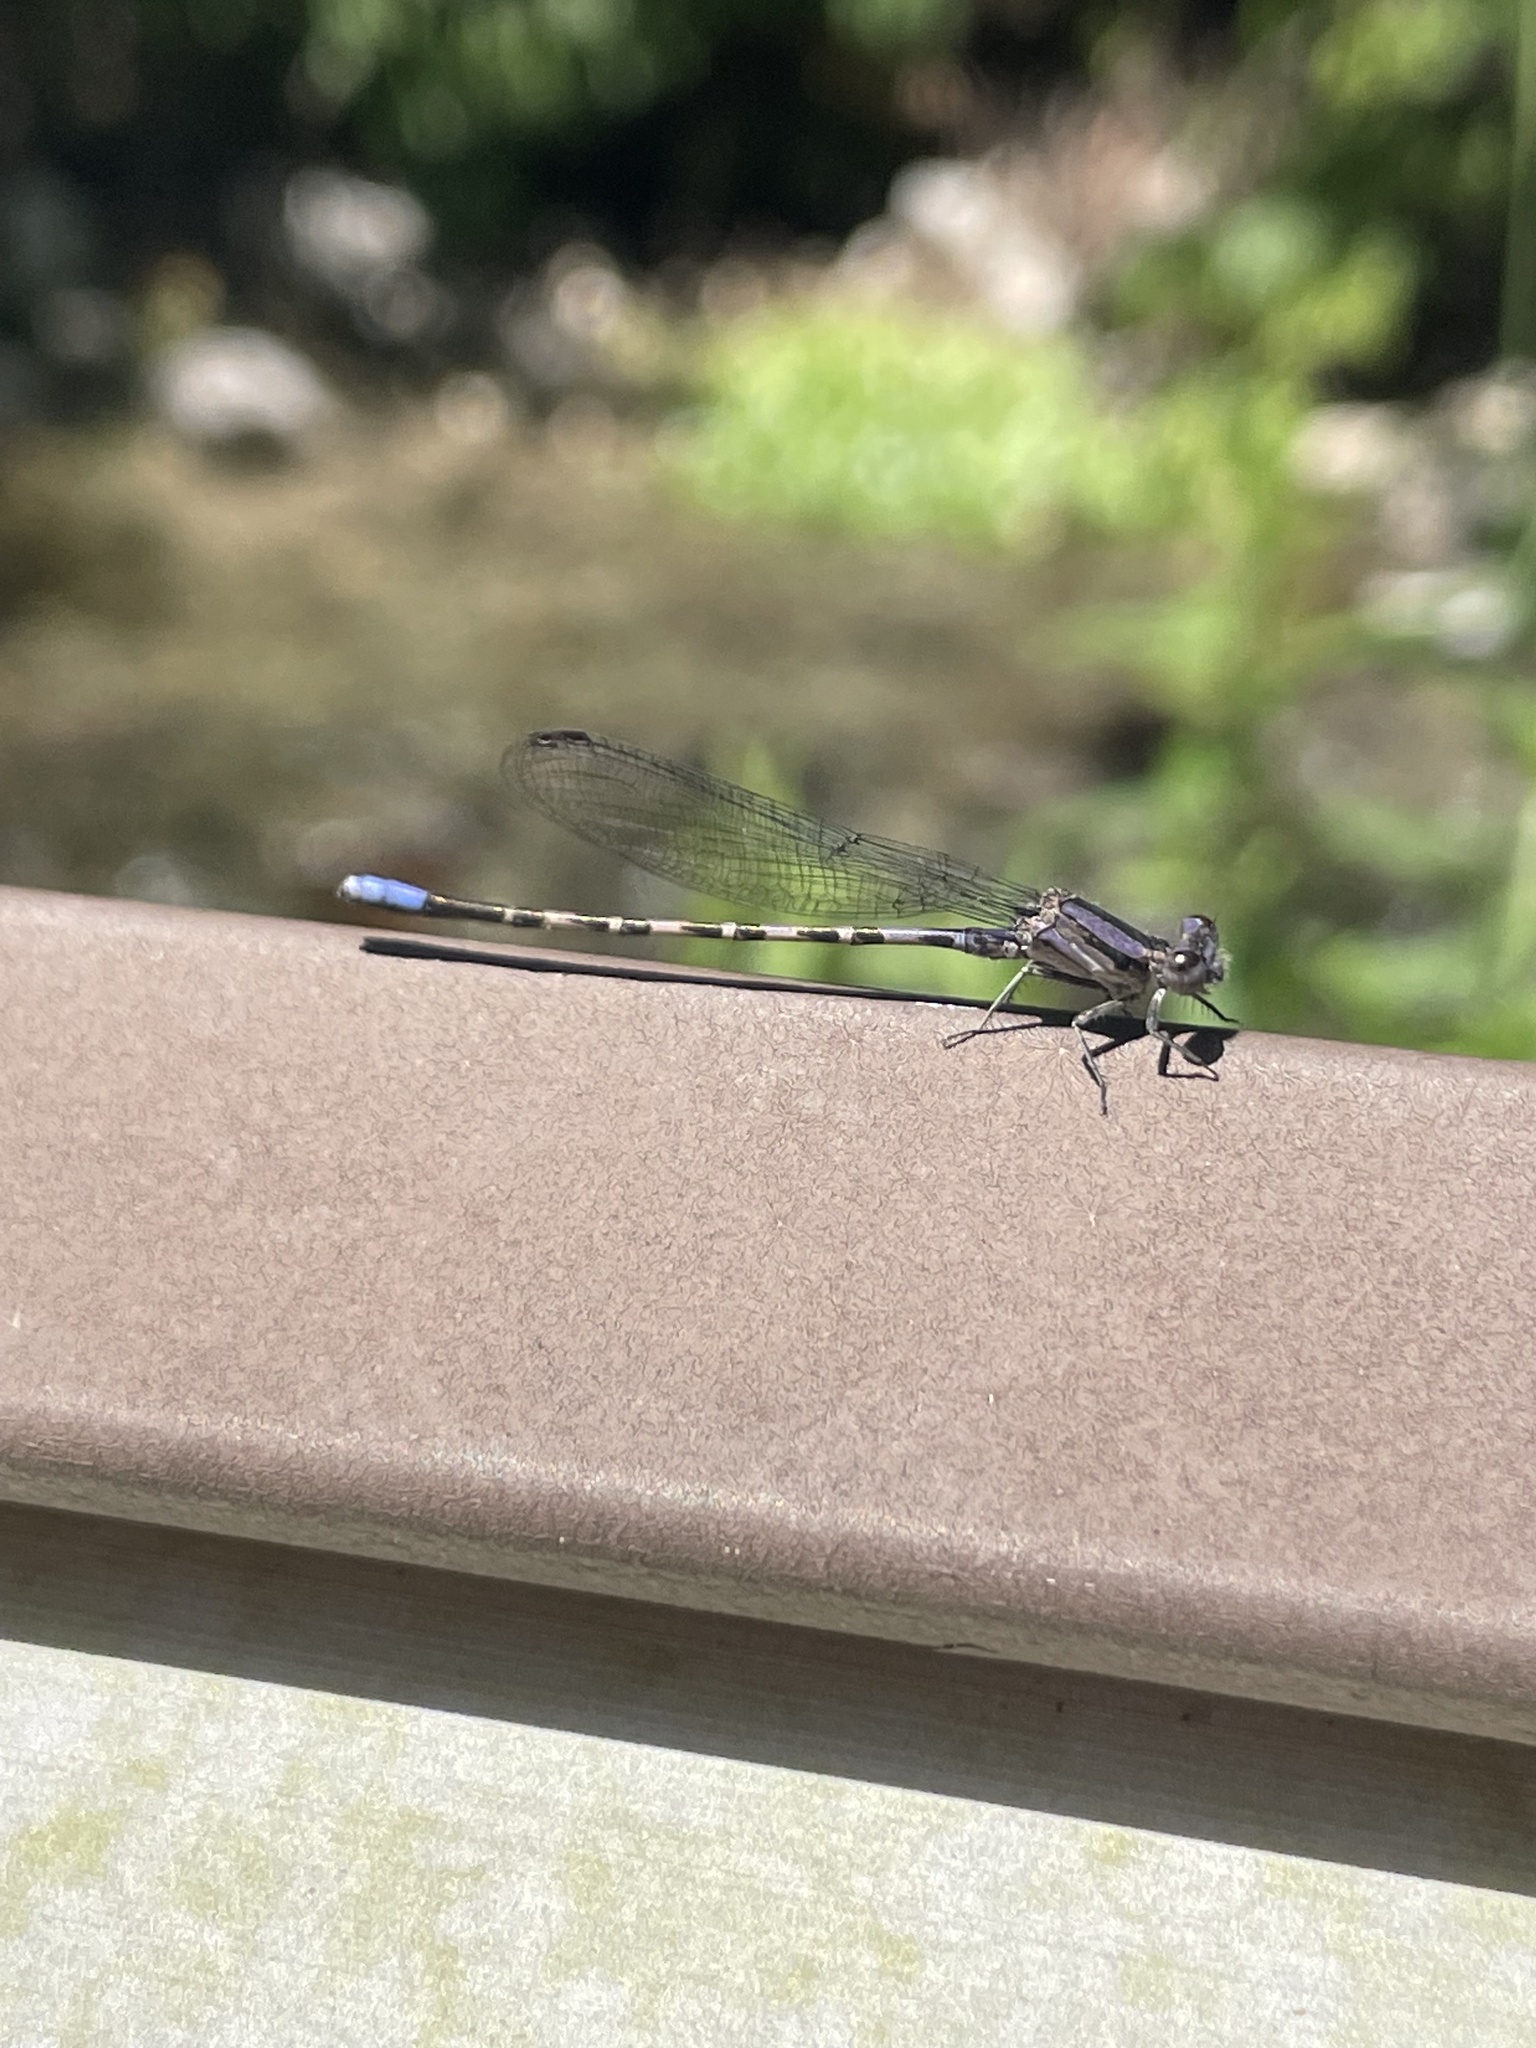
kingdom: Animalia
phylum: Arthropoda
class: Insecta
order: Odonata
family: Coenagrionidae
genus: Argia
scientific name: Argia immunda
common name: Kiowa dancer
